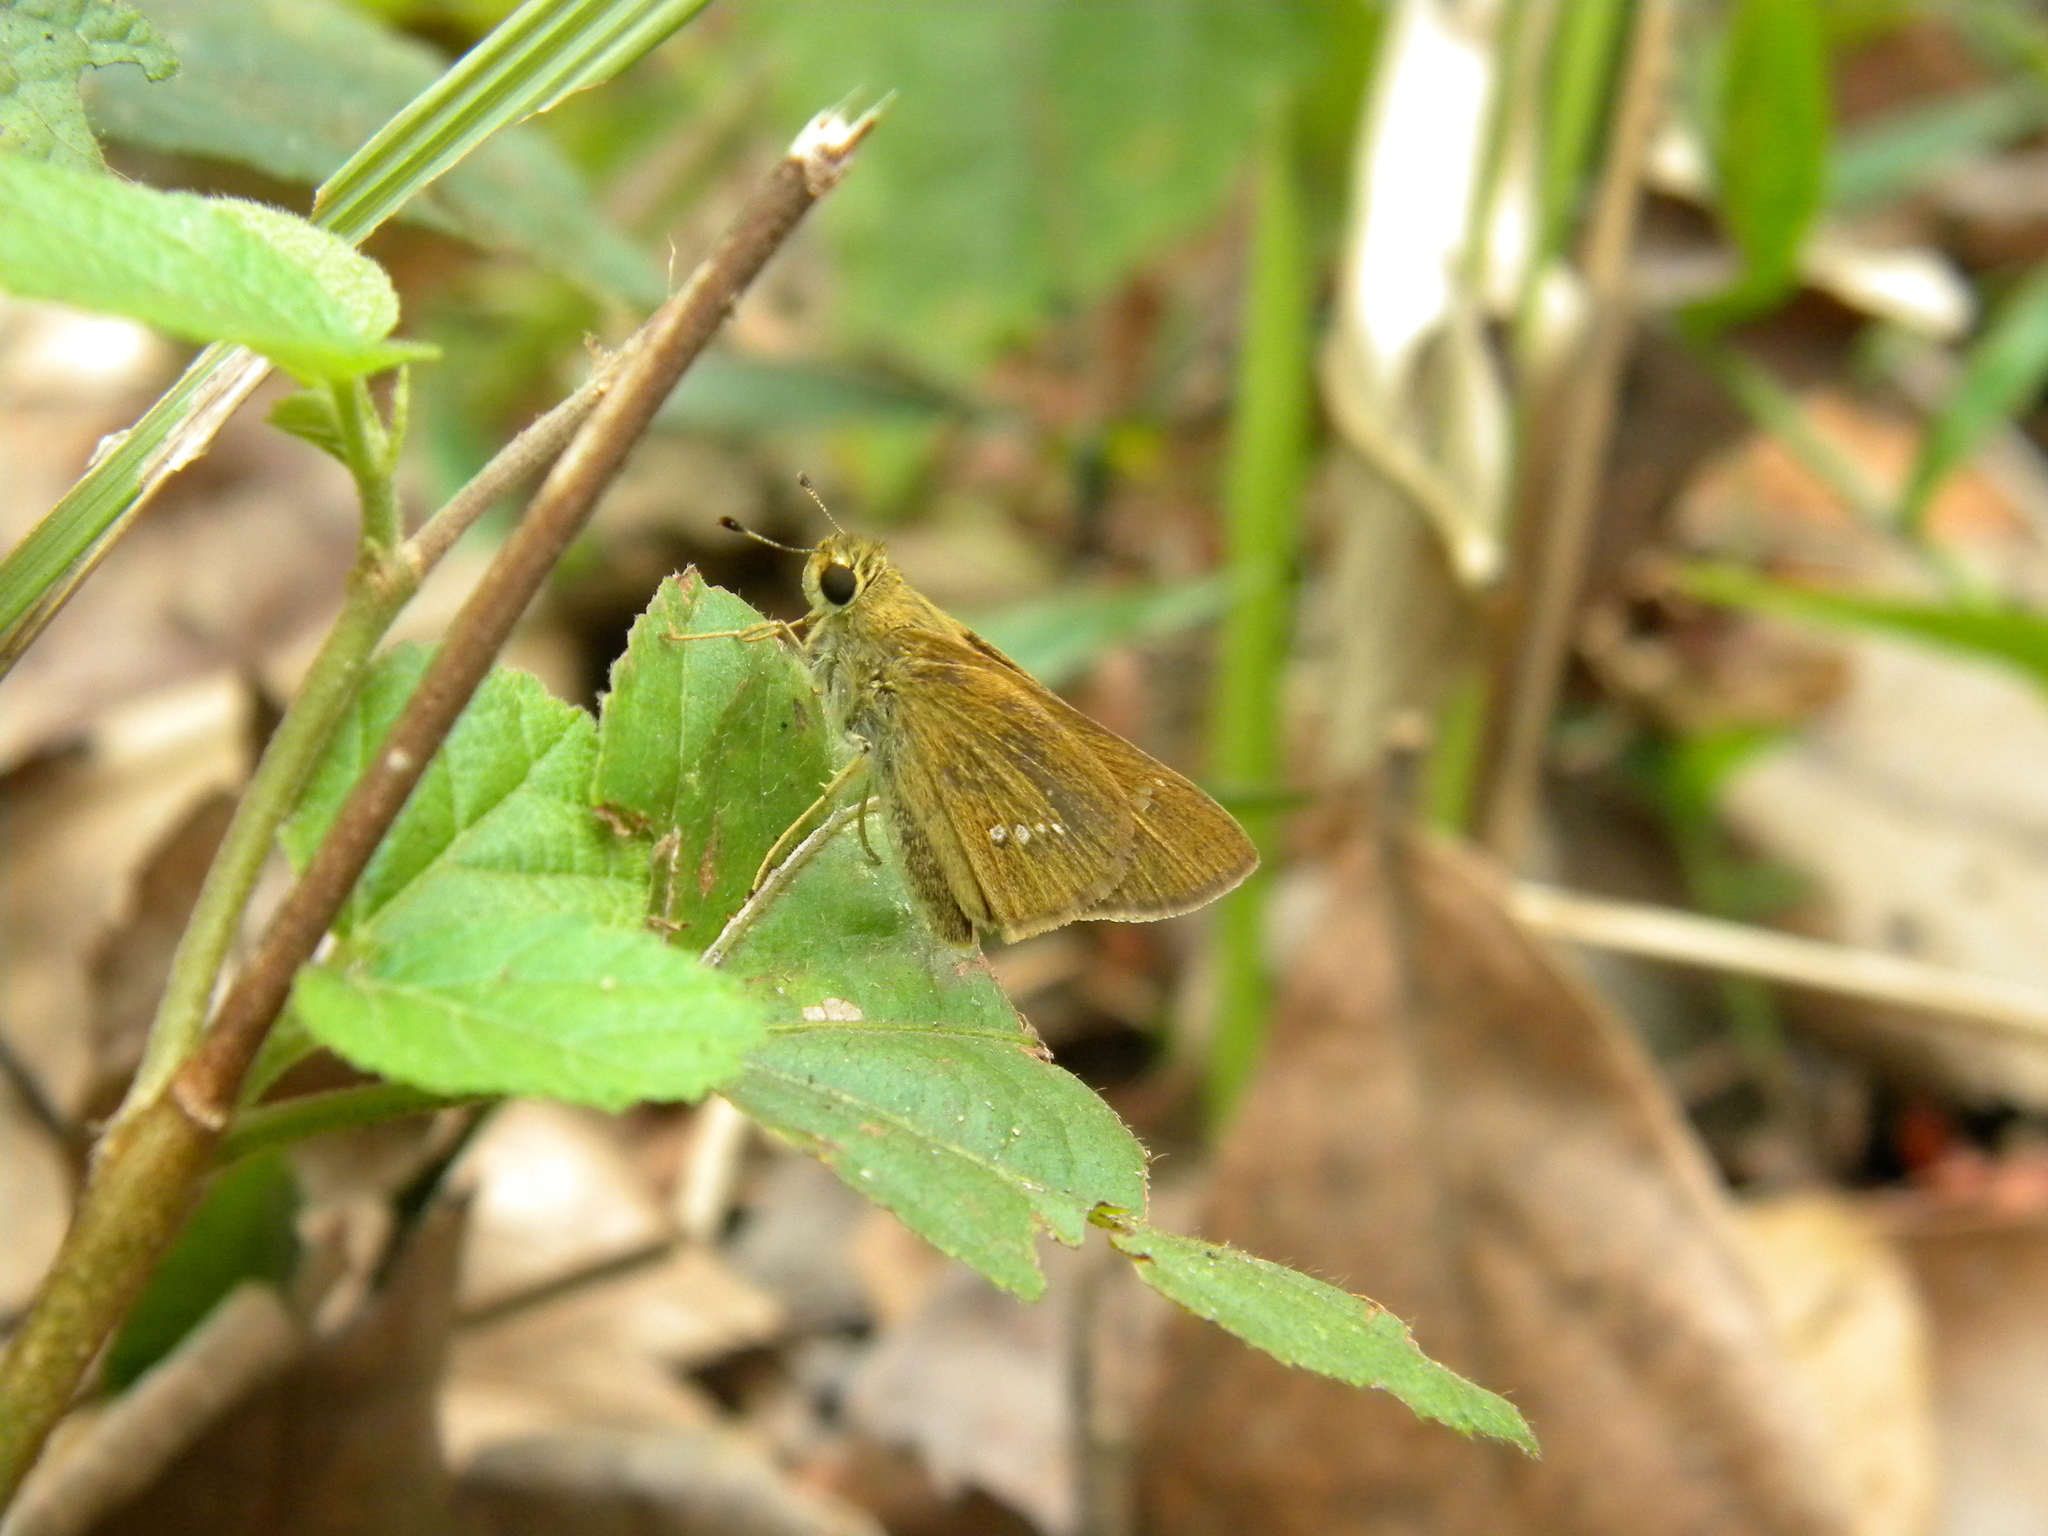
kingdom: Animalia
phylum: Arthropoda
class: Insecta
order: Lepidoptera
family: Hesperiidae
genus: Parnara
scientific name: Parnara naso
